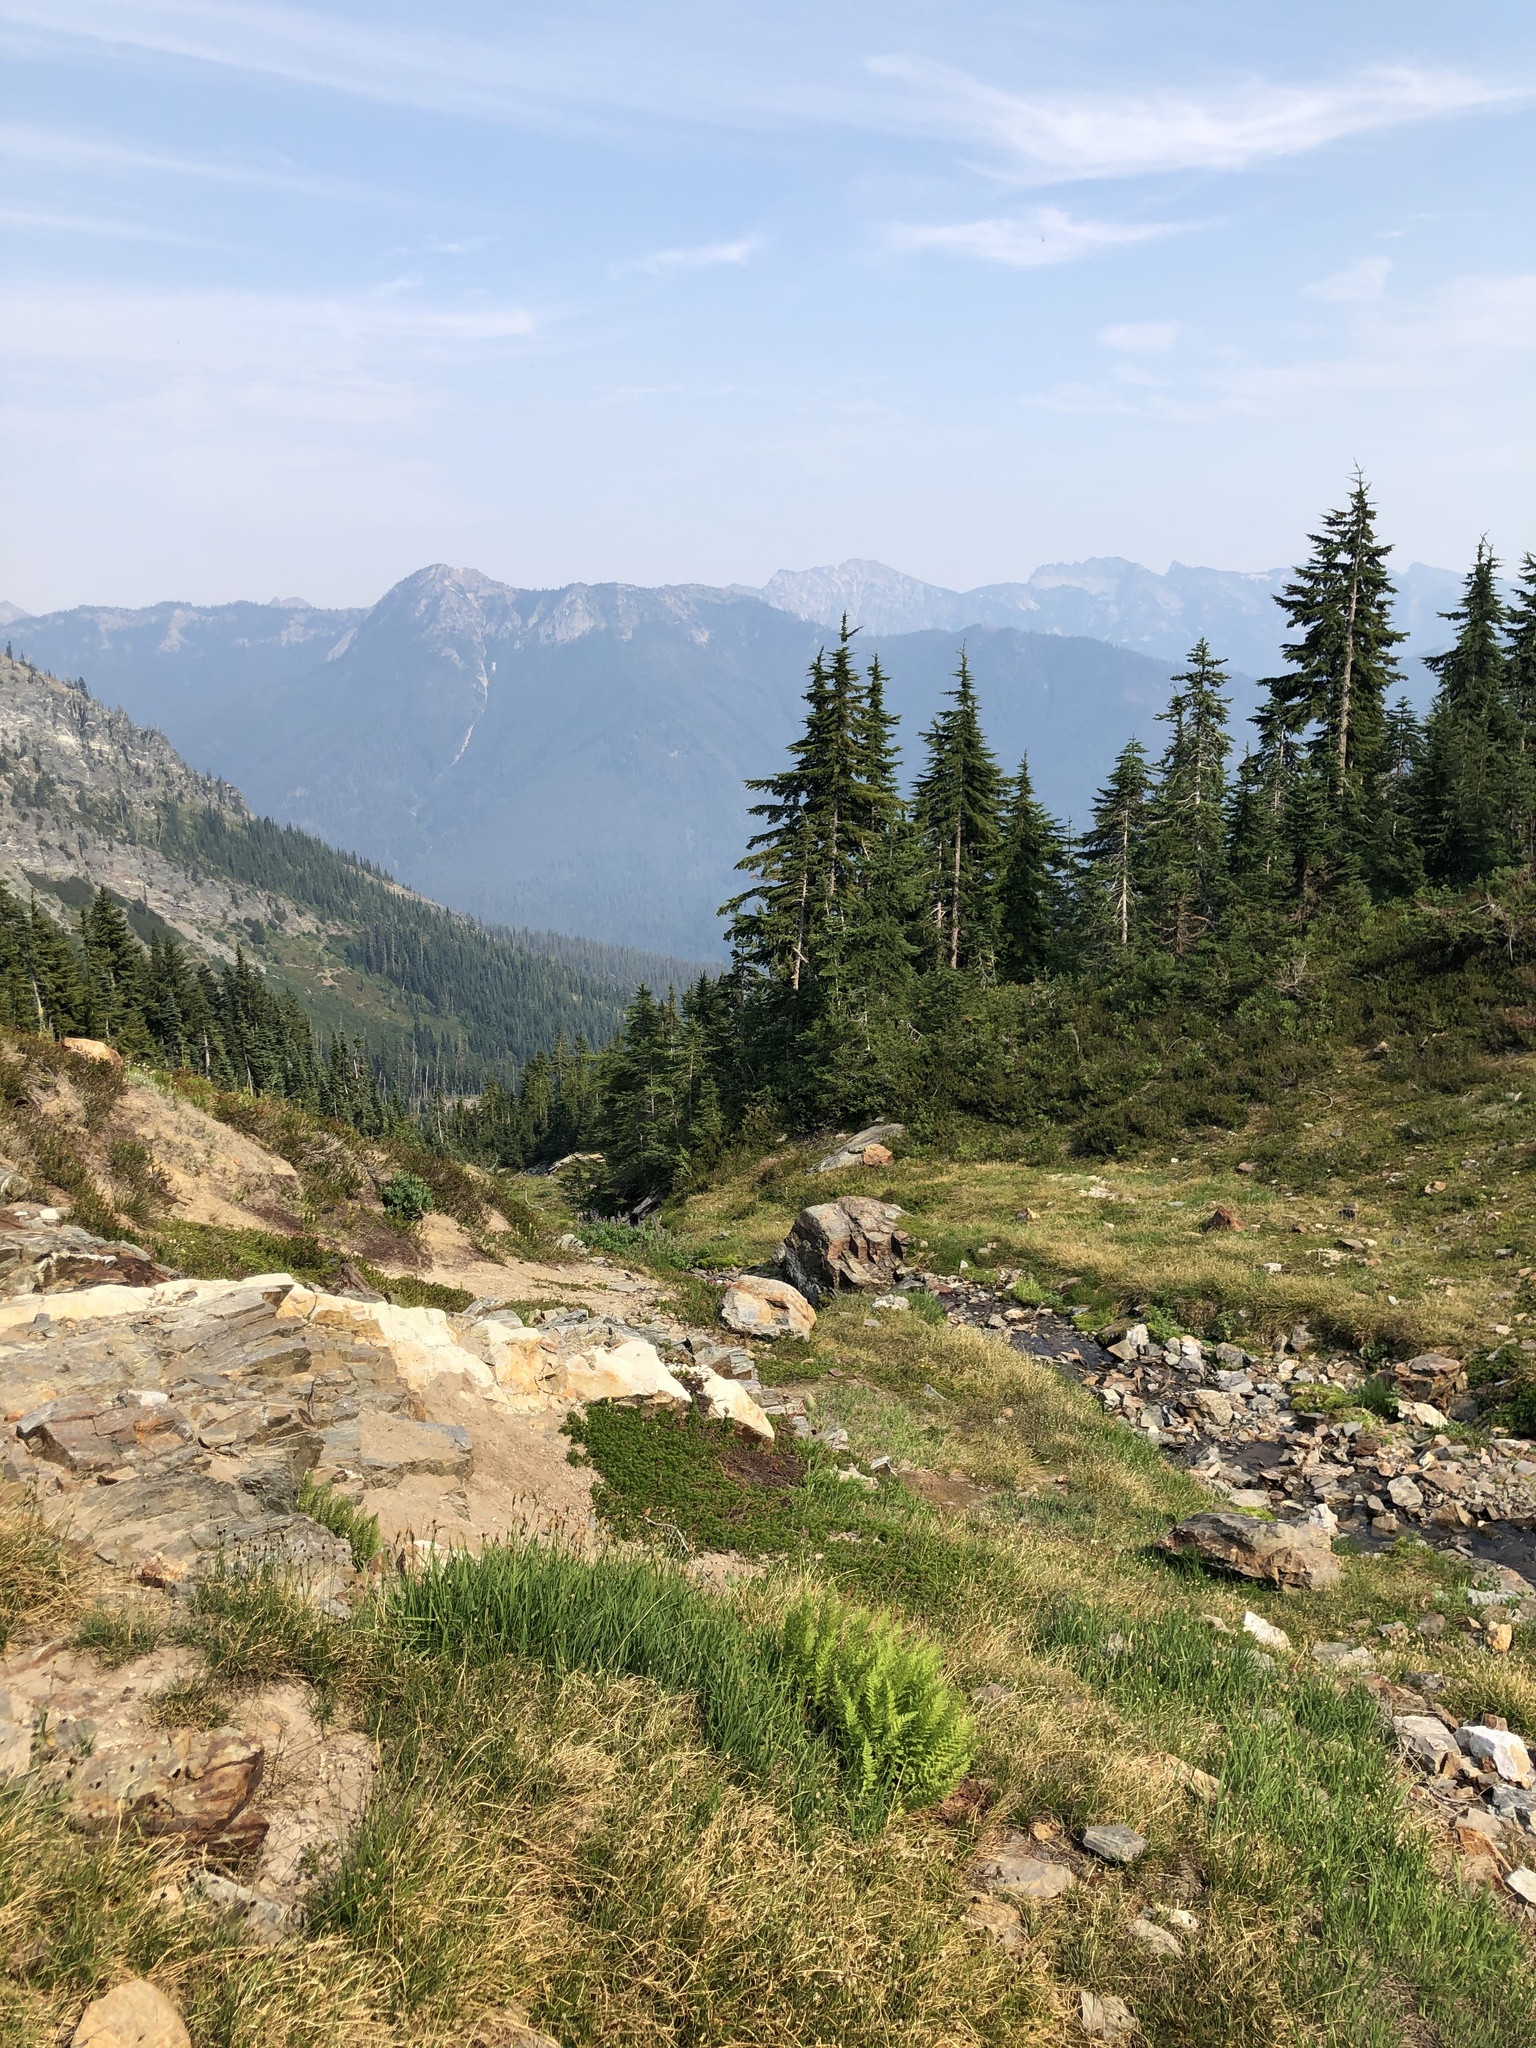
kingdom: Plantae
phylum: Tracheophyta
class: Pinopsida
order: Pinales
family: Pinaceae
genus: Tsuga
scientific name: Tsuga mertensiana
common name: Mountain hemlock
